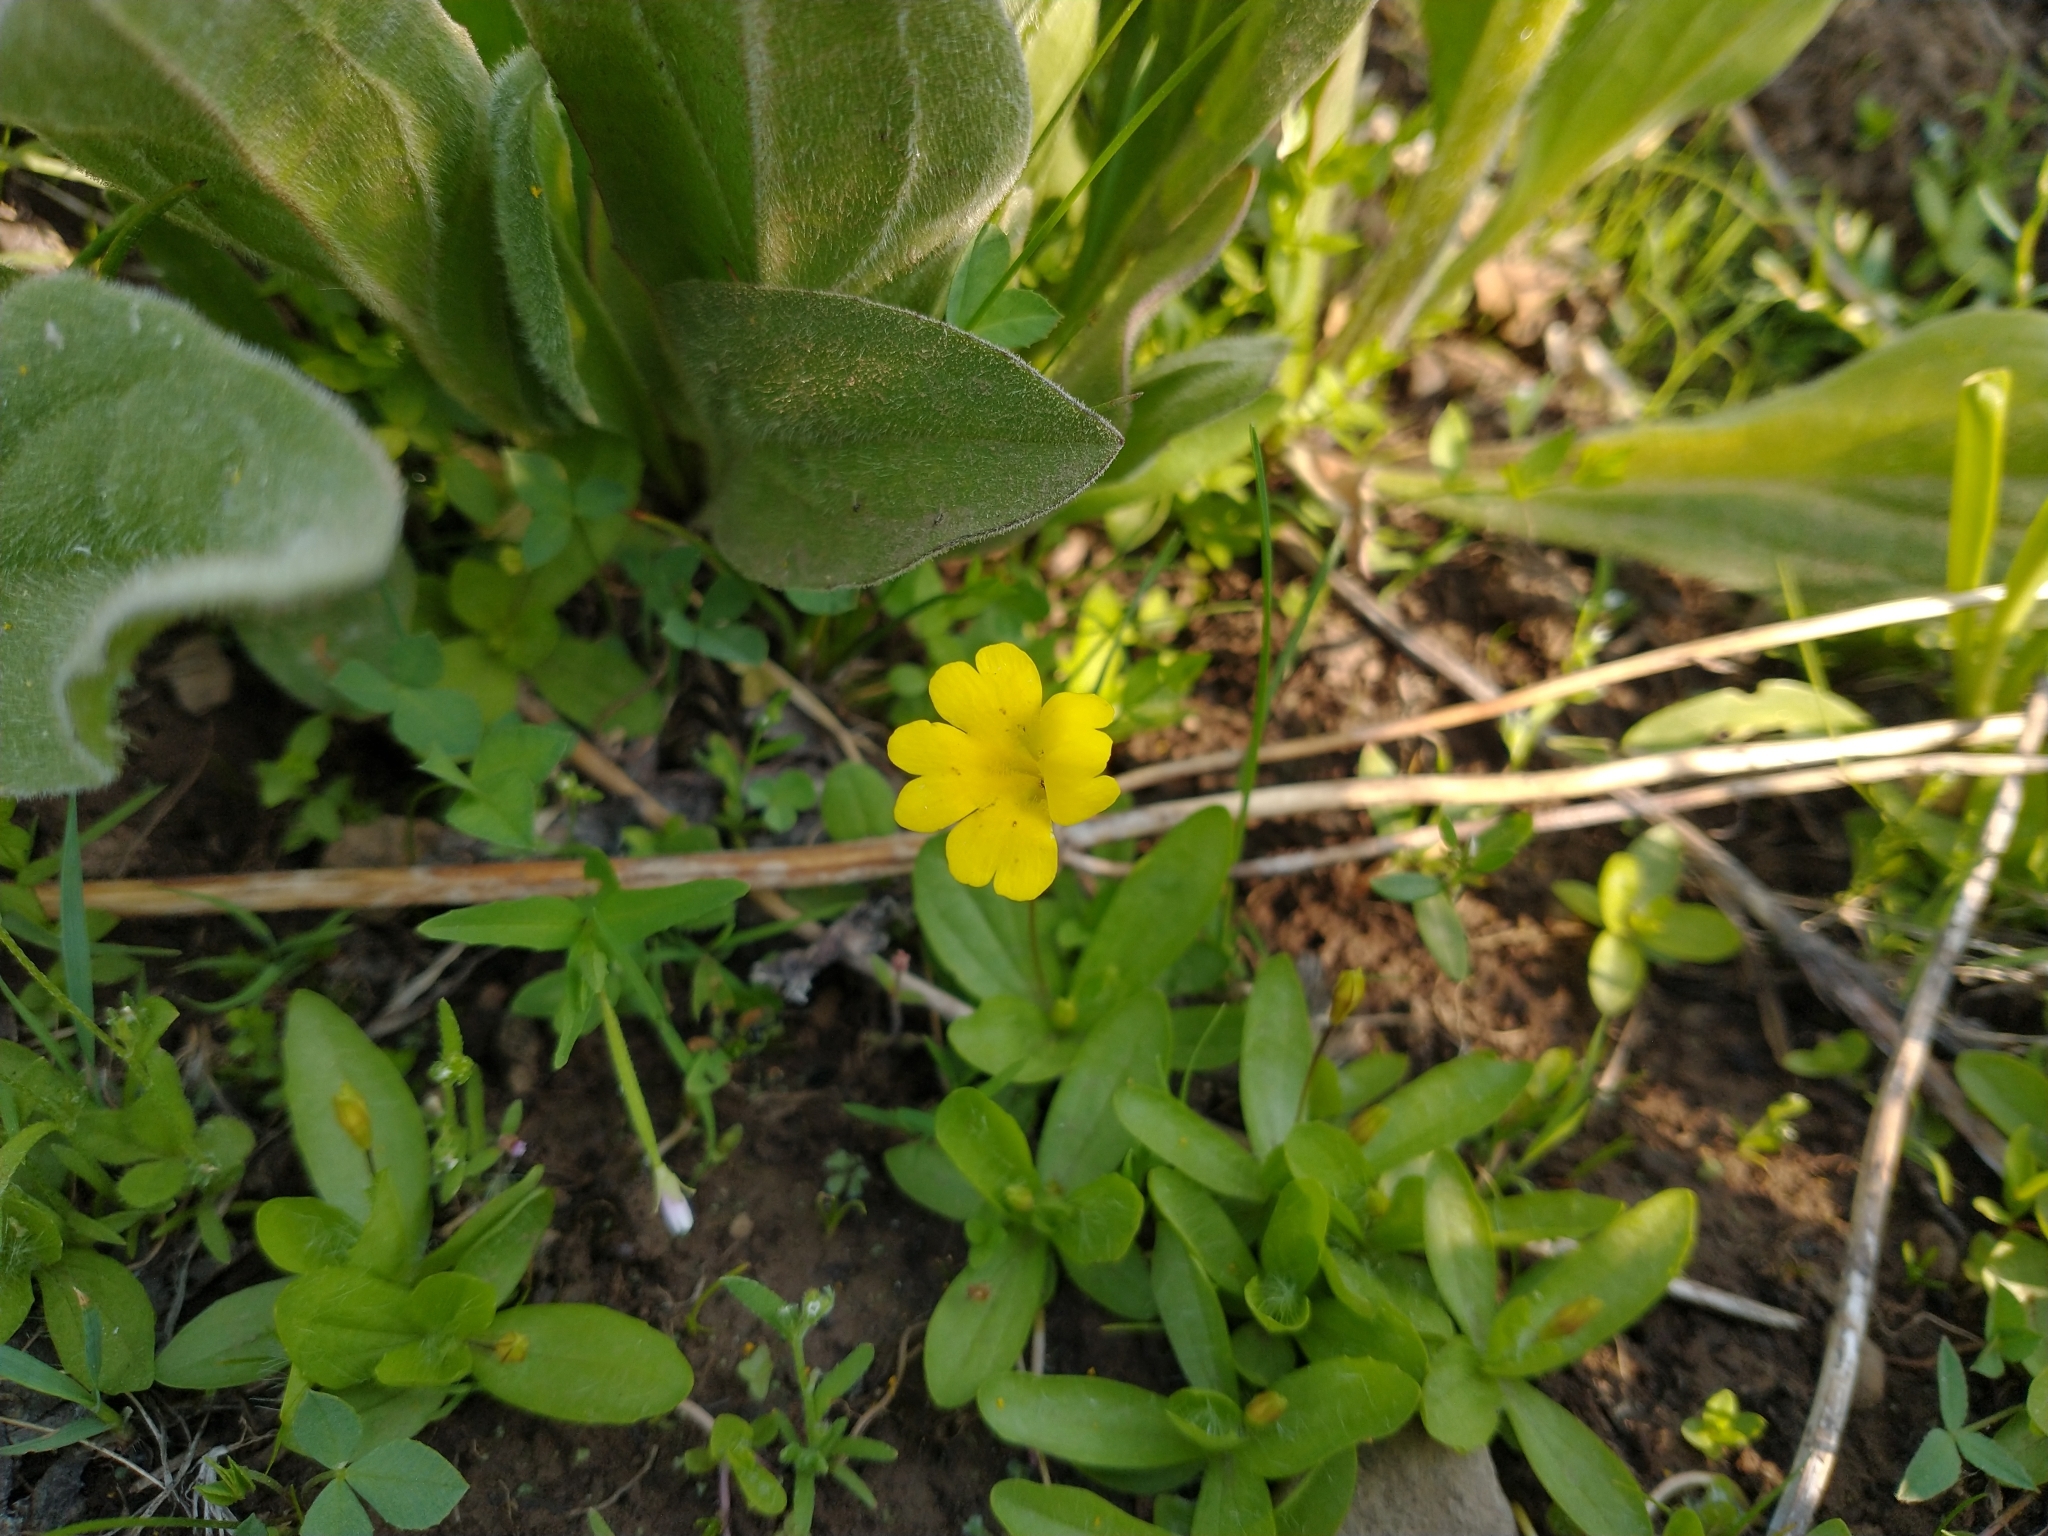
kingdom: Plantae
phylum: Tracheophyta
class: Magnoliopsida
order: Lamiales
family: Phrymaceae
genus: Erythranthe
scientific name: Erythranthe primuloides
